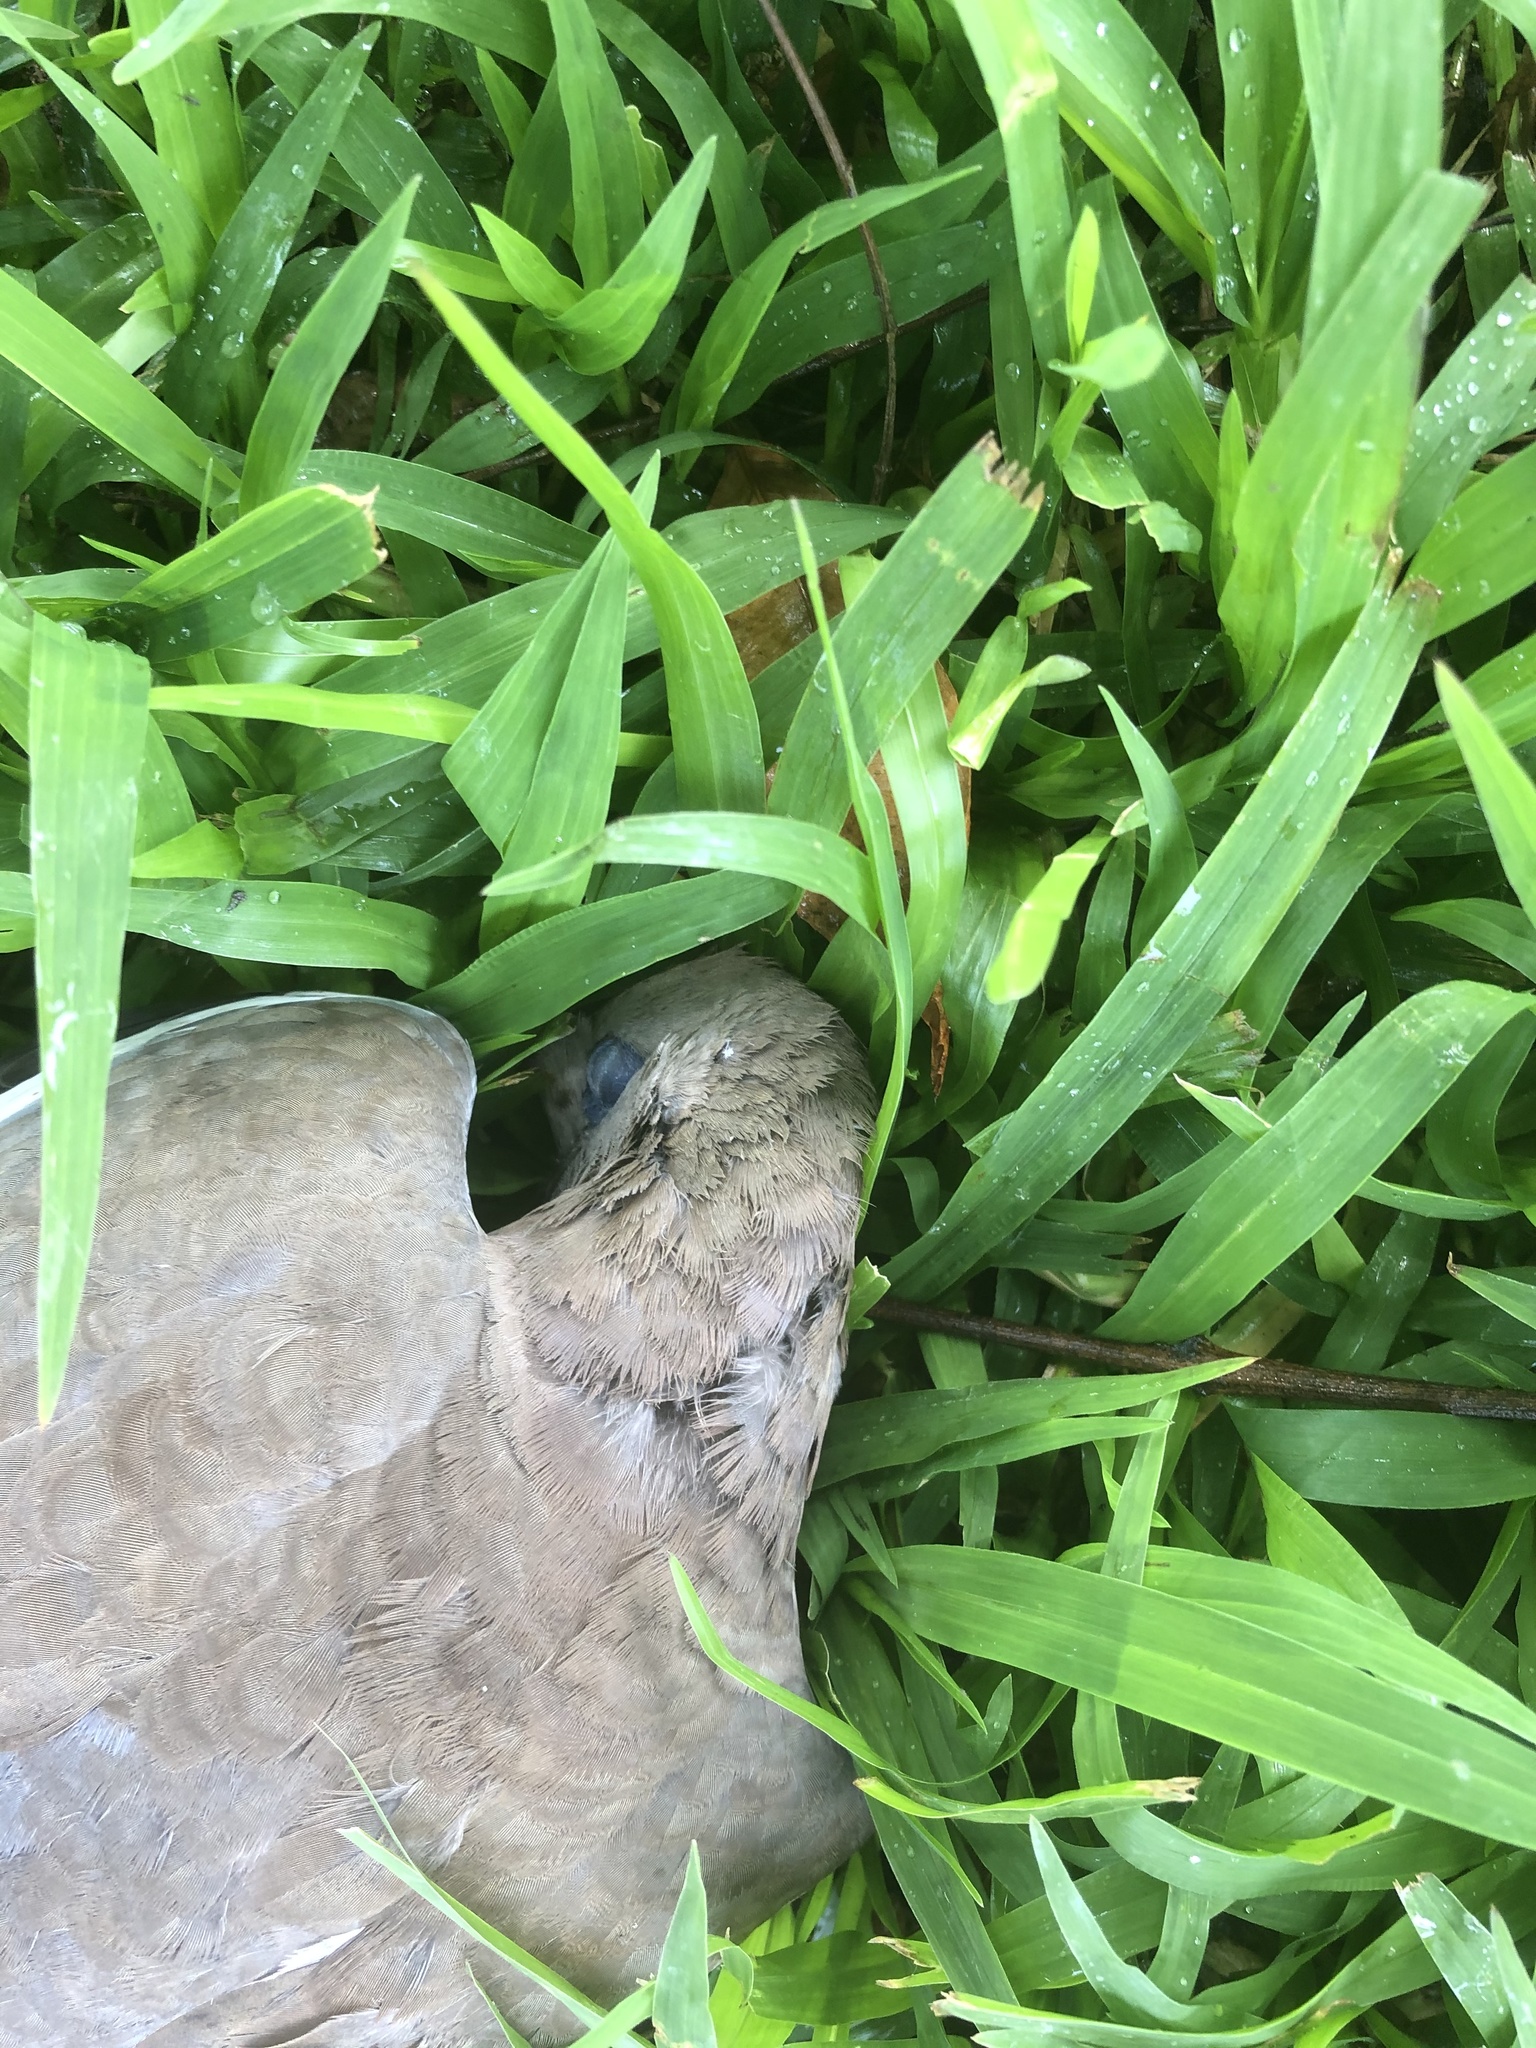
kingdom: Animalia
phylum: Chordata
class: Aves
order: Columbiformes
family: Columbidae
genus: Zenaida
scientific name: Zenaida meloda
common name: West peruvian dove
